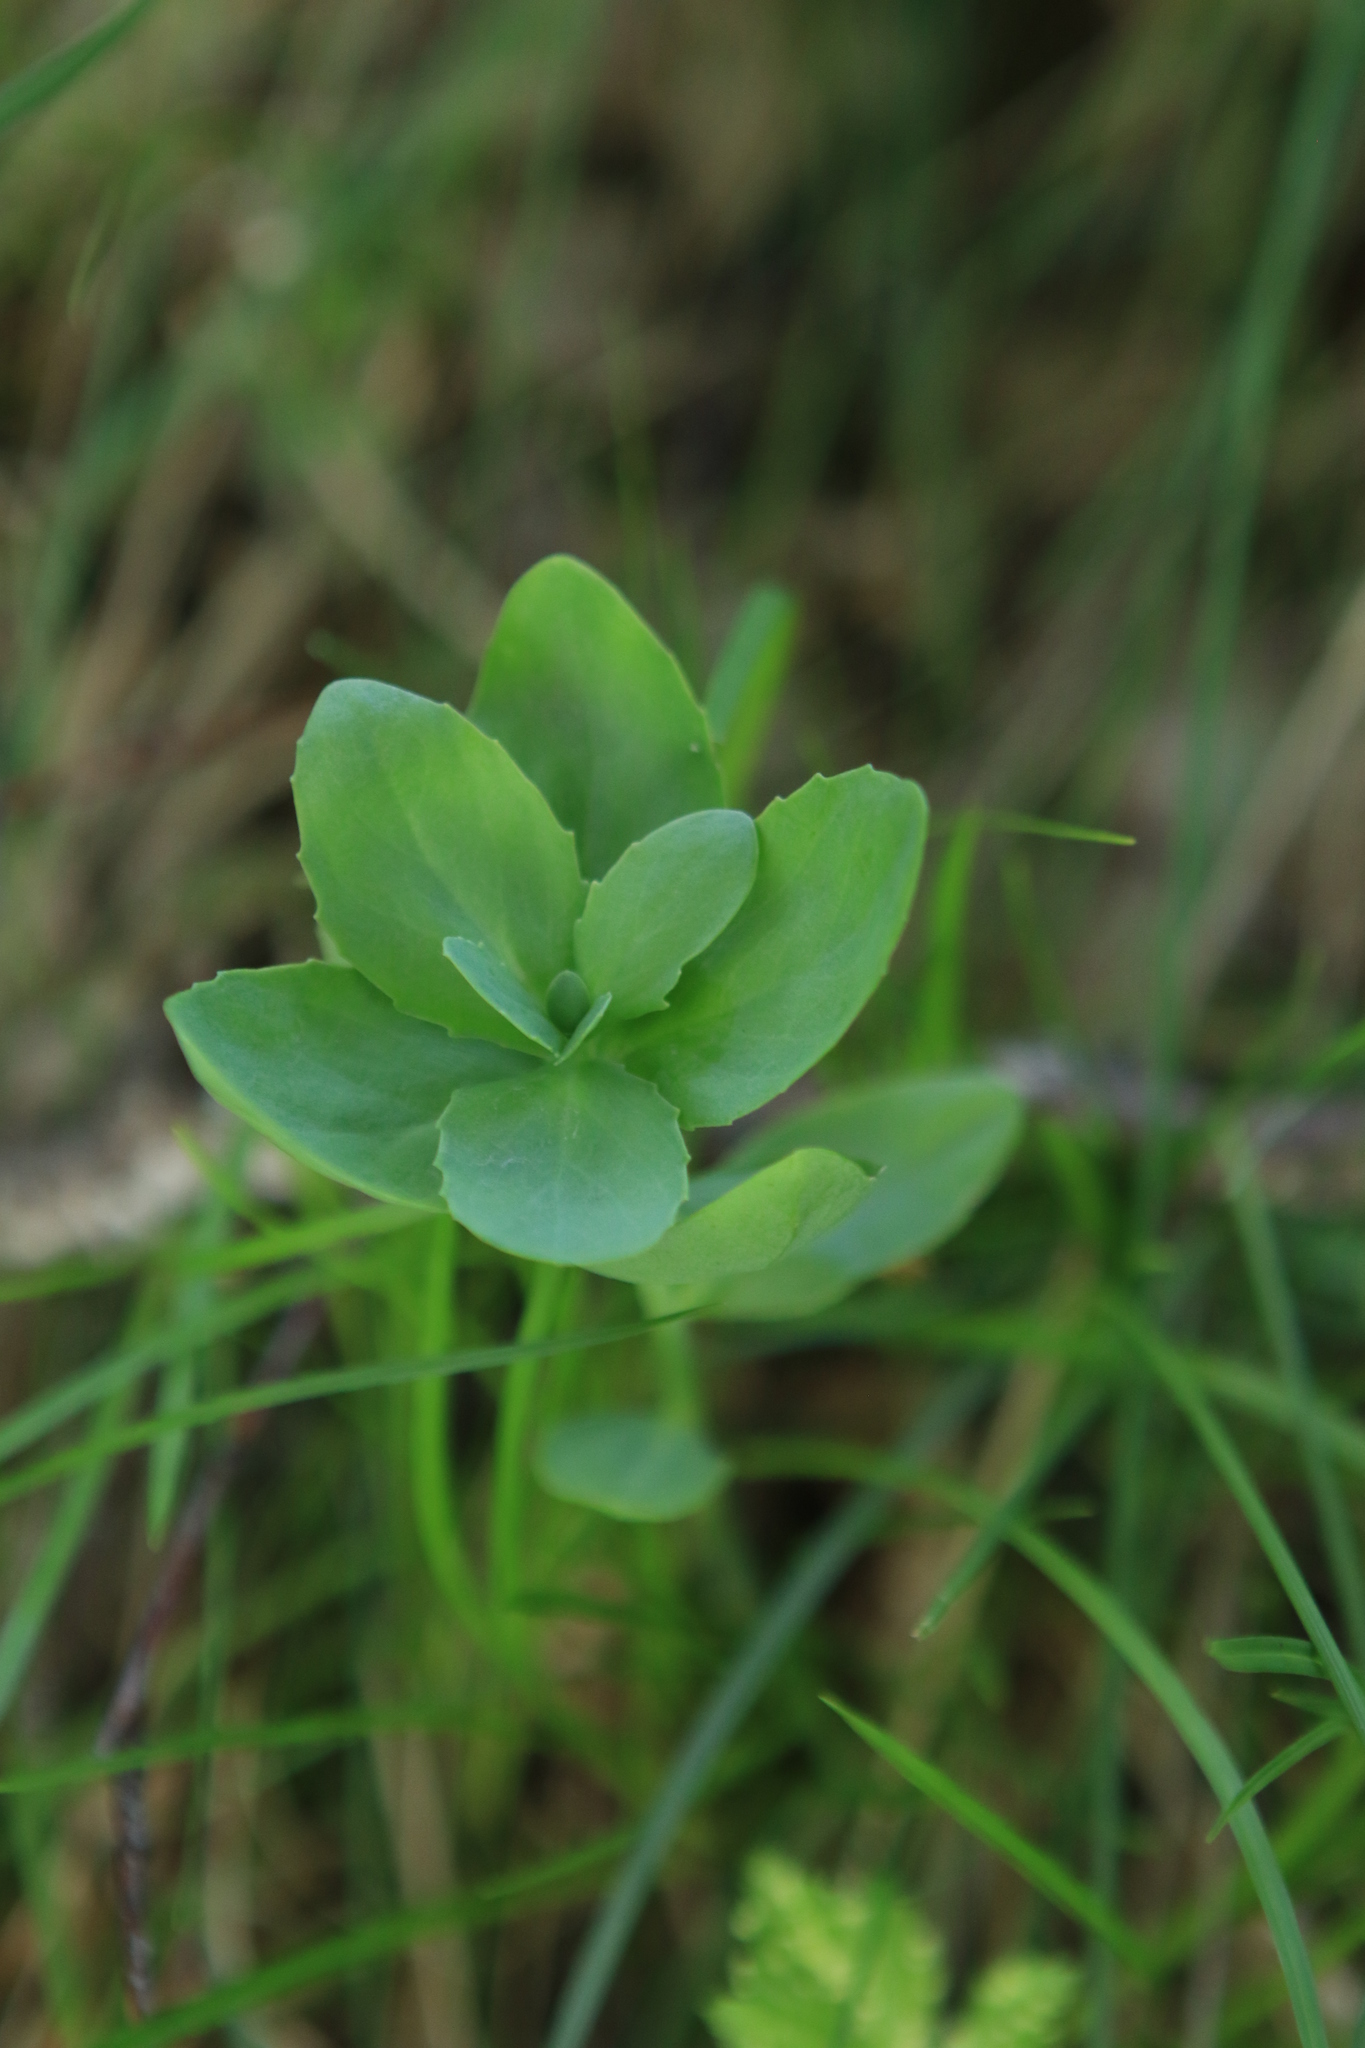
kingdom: Plantae
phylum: Tracheophyta
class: Magnoliopsida
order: Saxifragales
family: Crassulaceae
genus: Hylotelephium
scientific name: Hylotelephium telephium
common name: Live-forever
